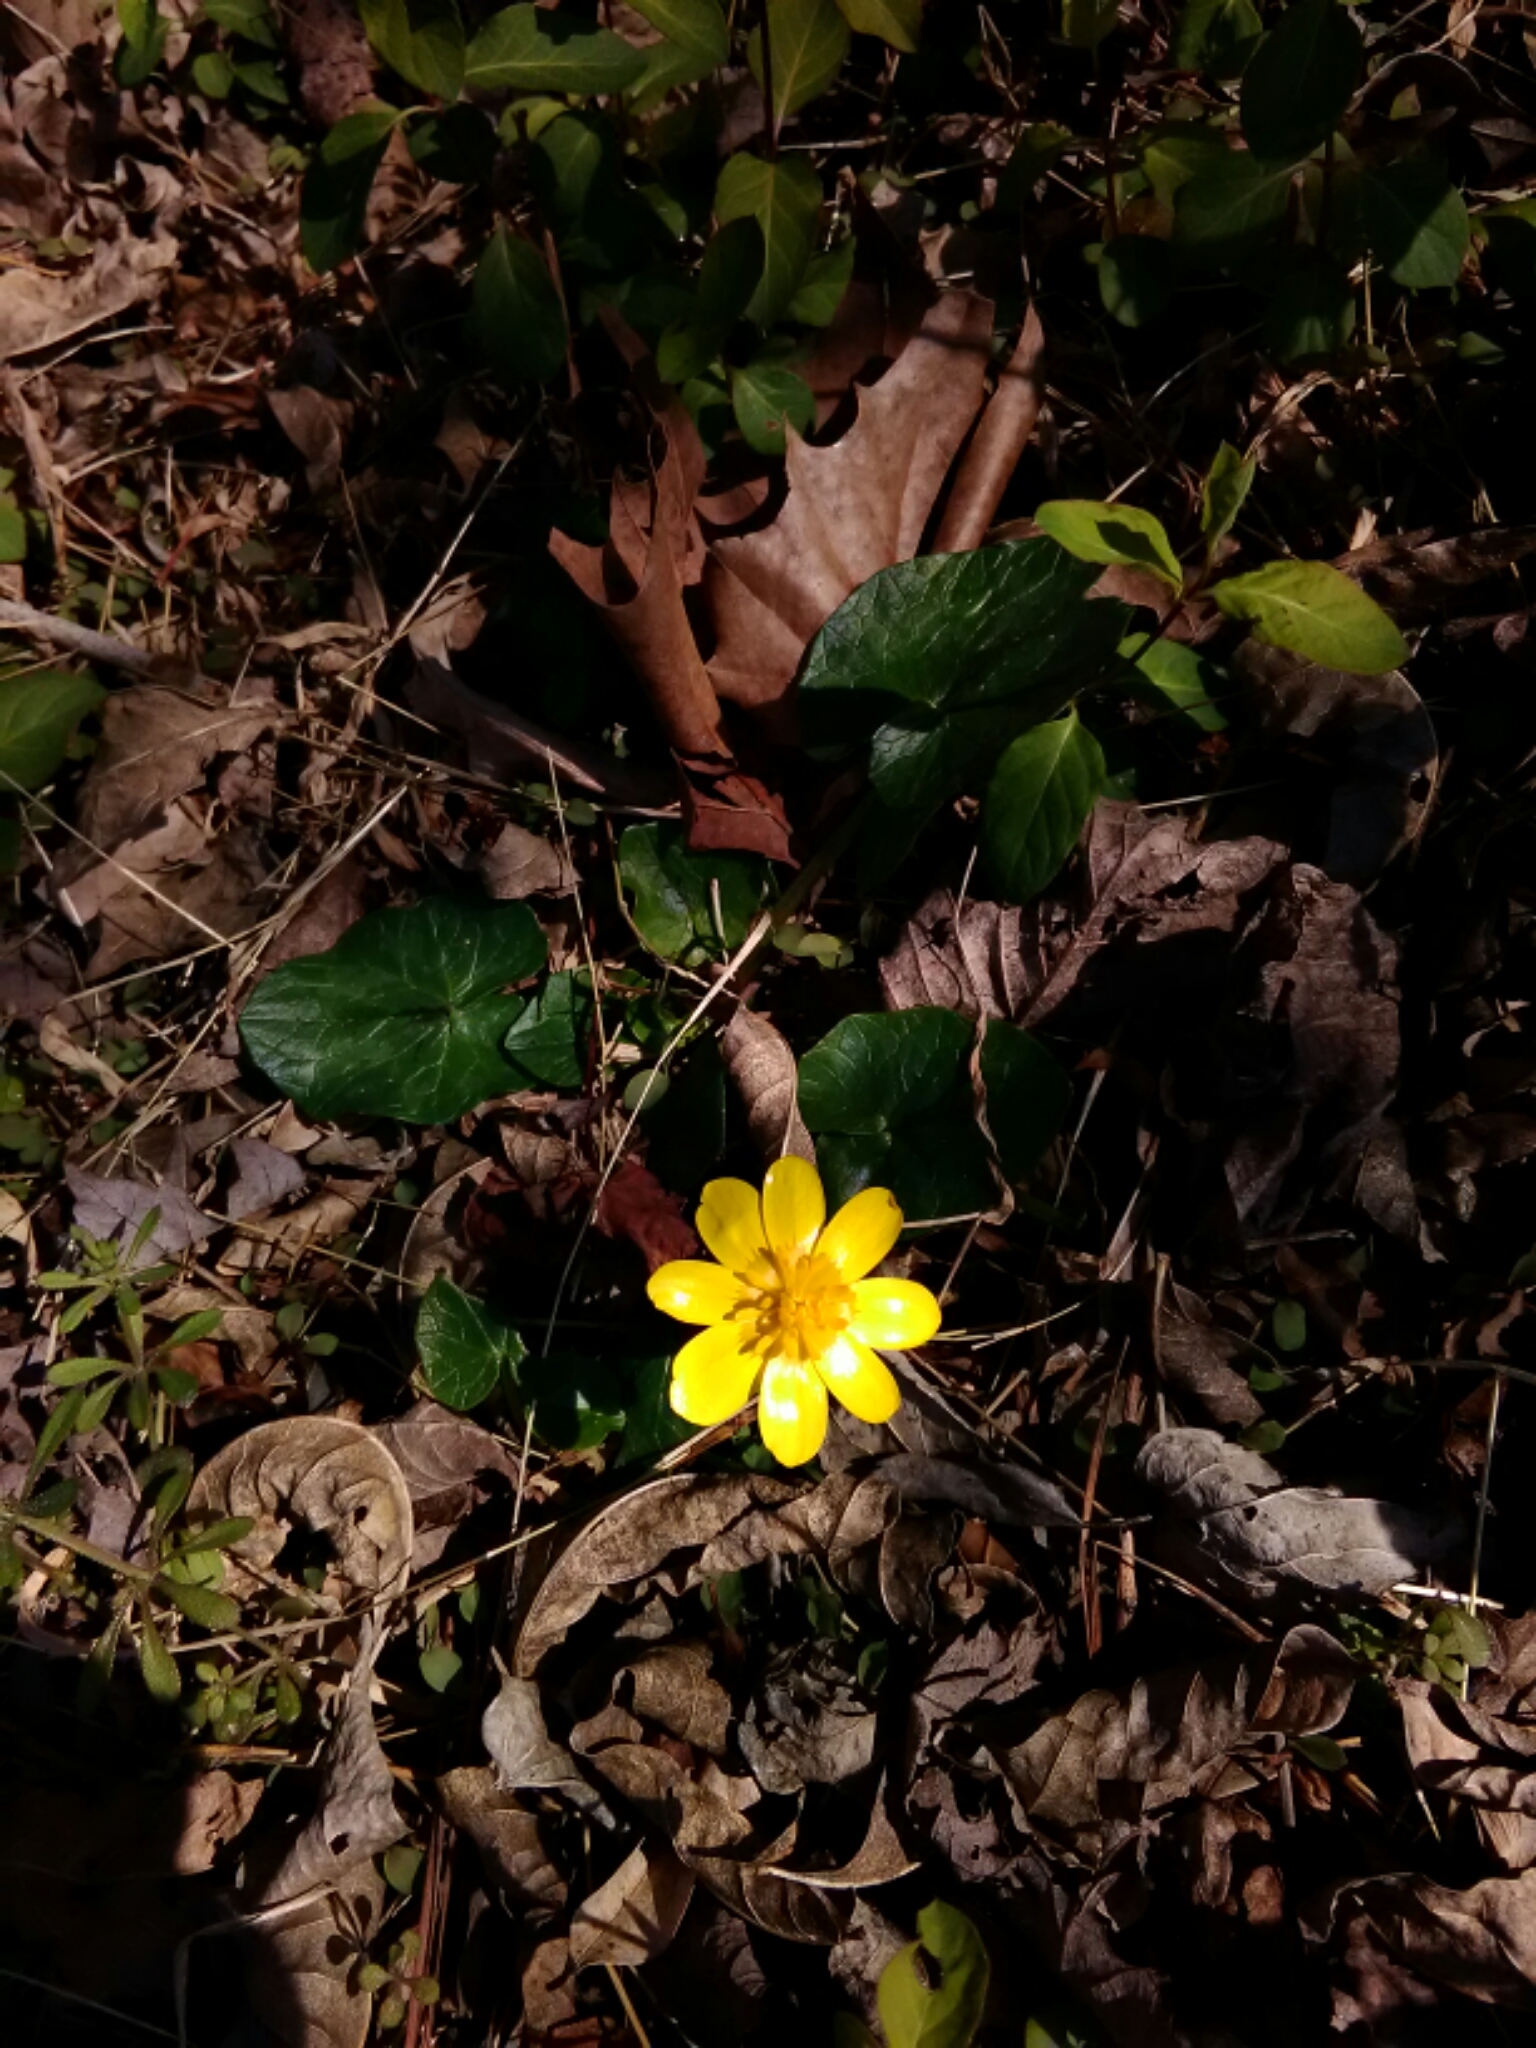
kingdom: Plantae
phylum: Tracheophyta
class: Magnoliopsida
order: Ranunculales
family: Ranunculaceae
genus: Ficaria
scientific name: Ficaria verna
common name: Lesser celandine
